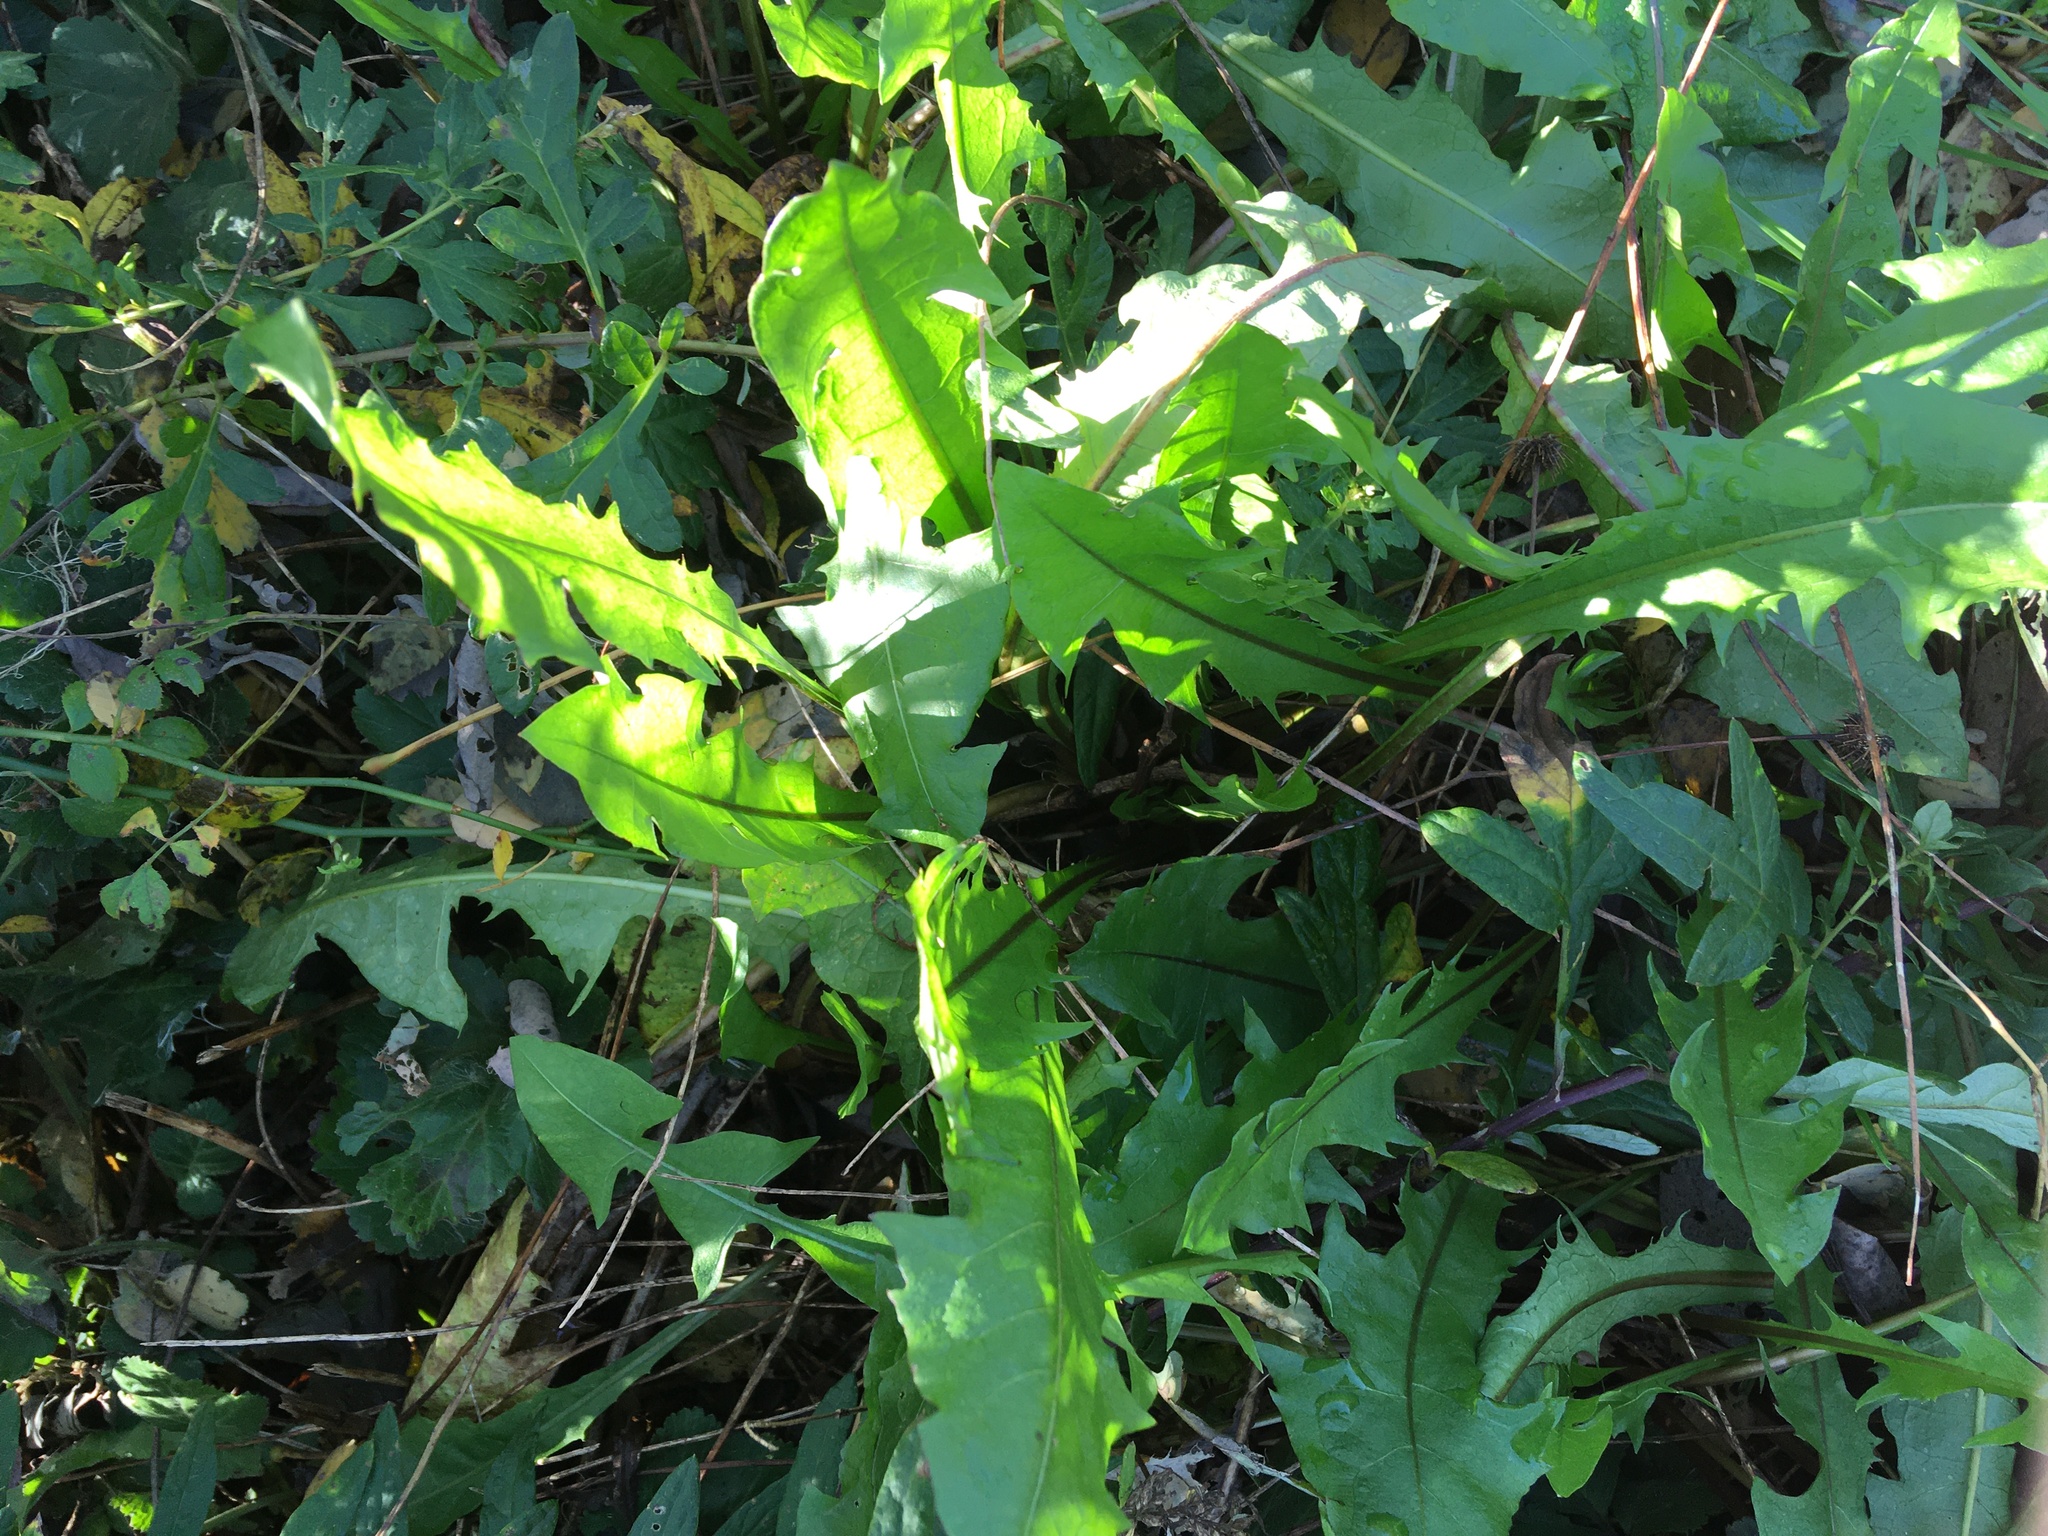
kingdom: Plantae
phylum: Tracheophyta
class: Magnoliopsida
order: Asterales
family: Asteraceae
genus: Taraxacum
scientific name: Taraxacum officinale
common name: Common dandelion
